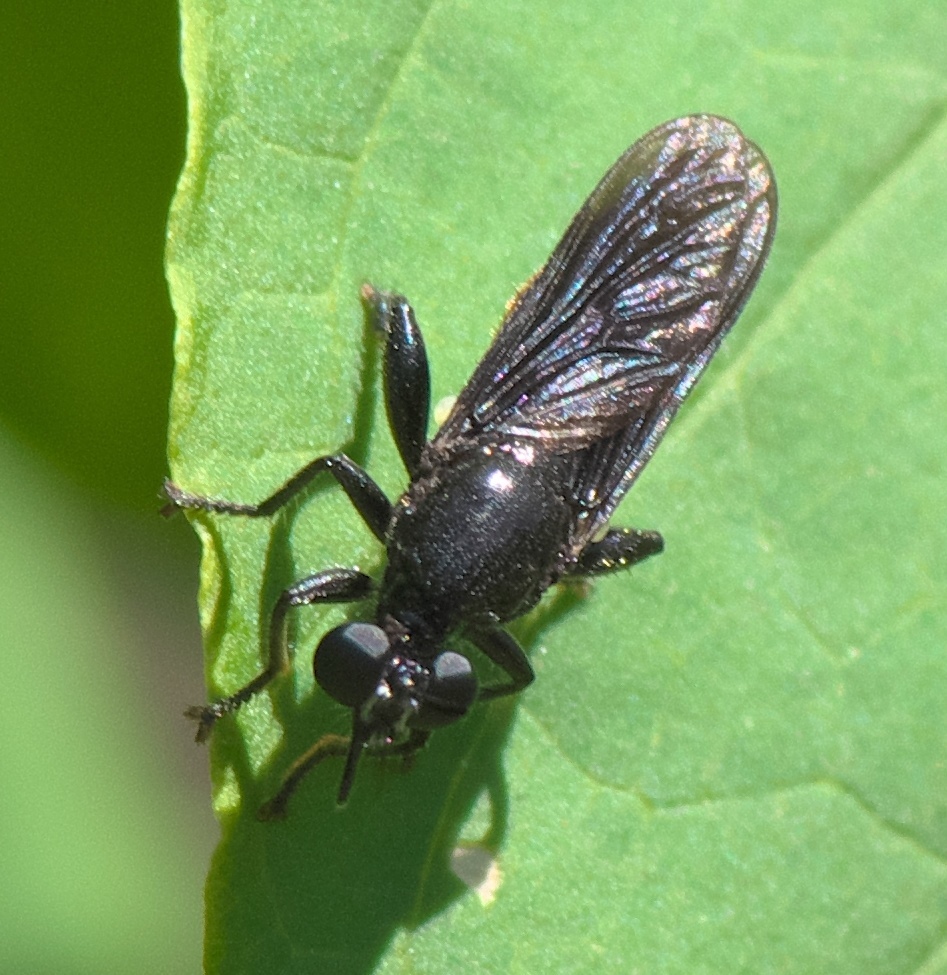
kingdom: Animalia
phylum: Arthropoda
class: Insecta
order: Diptera
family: Asilidae
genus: Lampria
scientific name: Lampria bicolor
